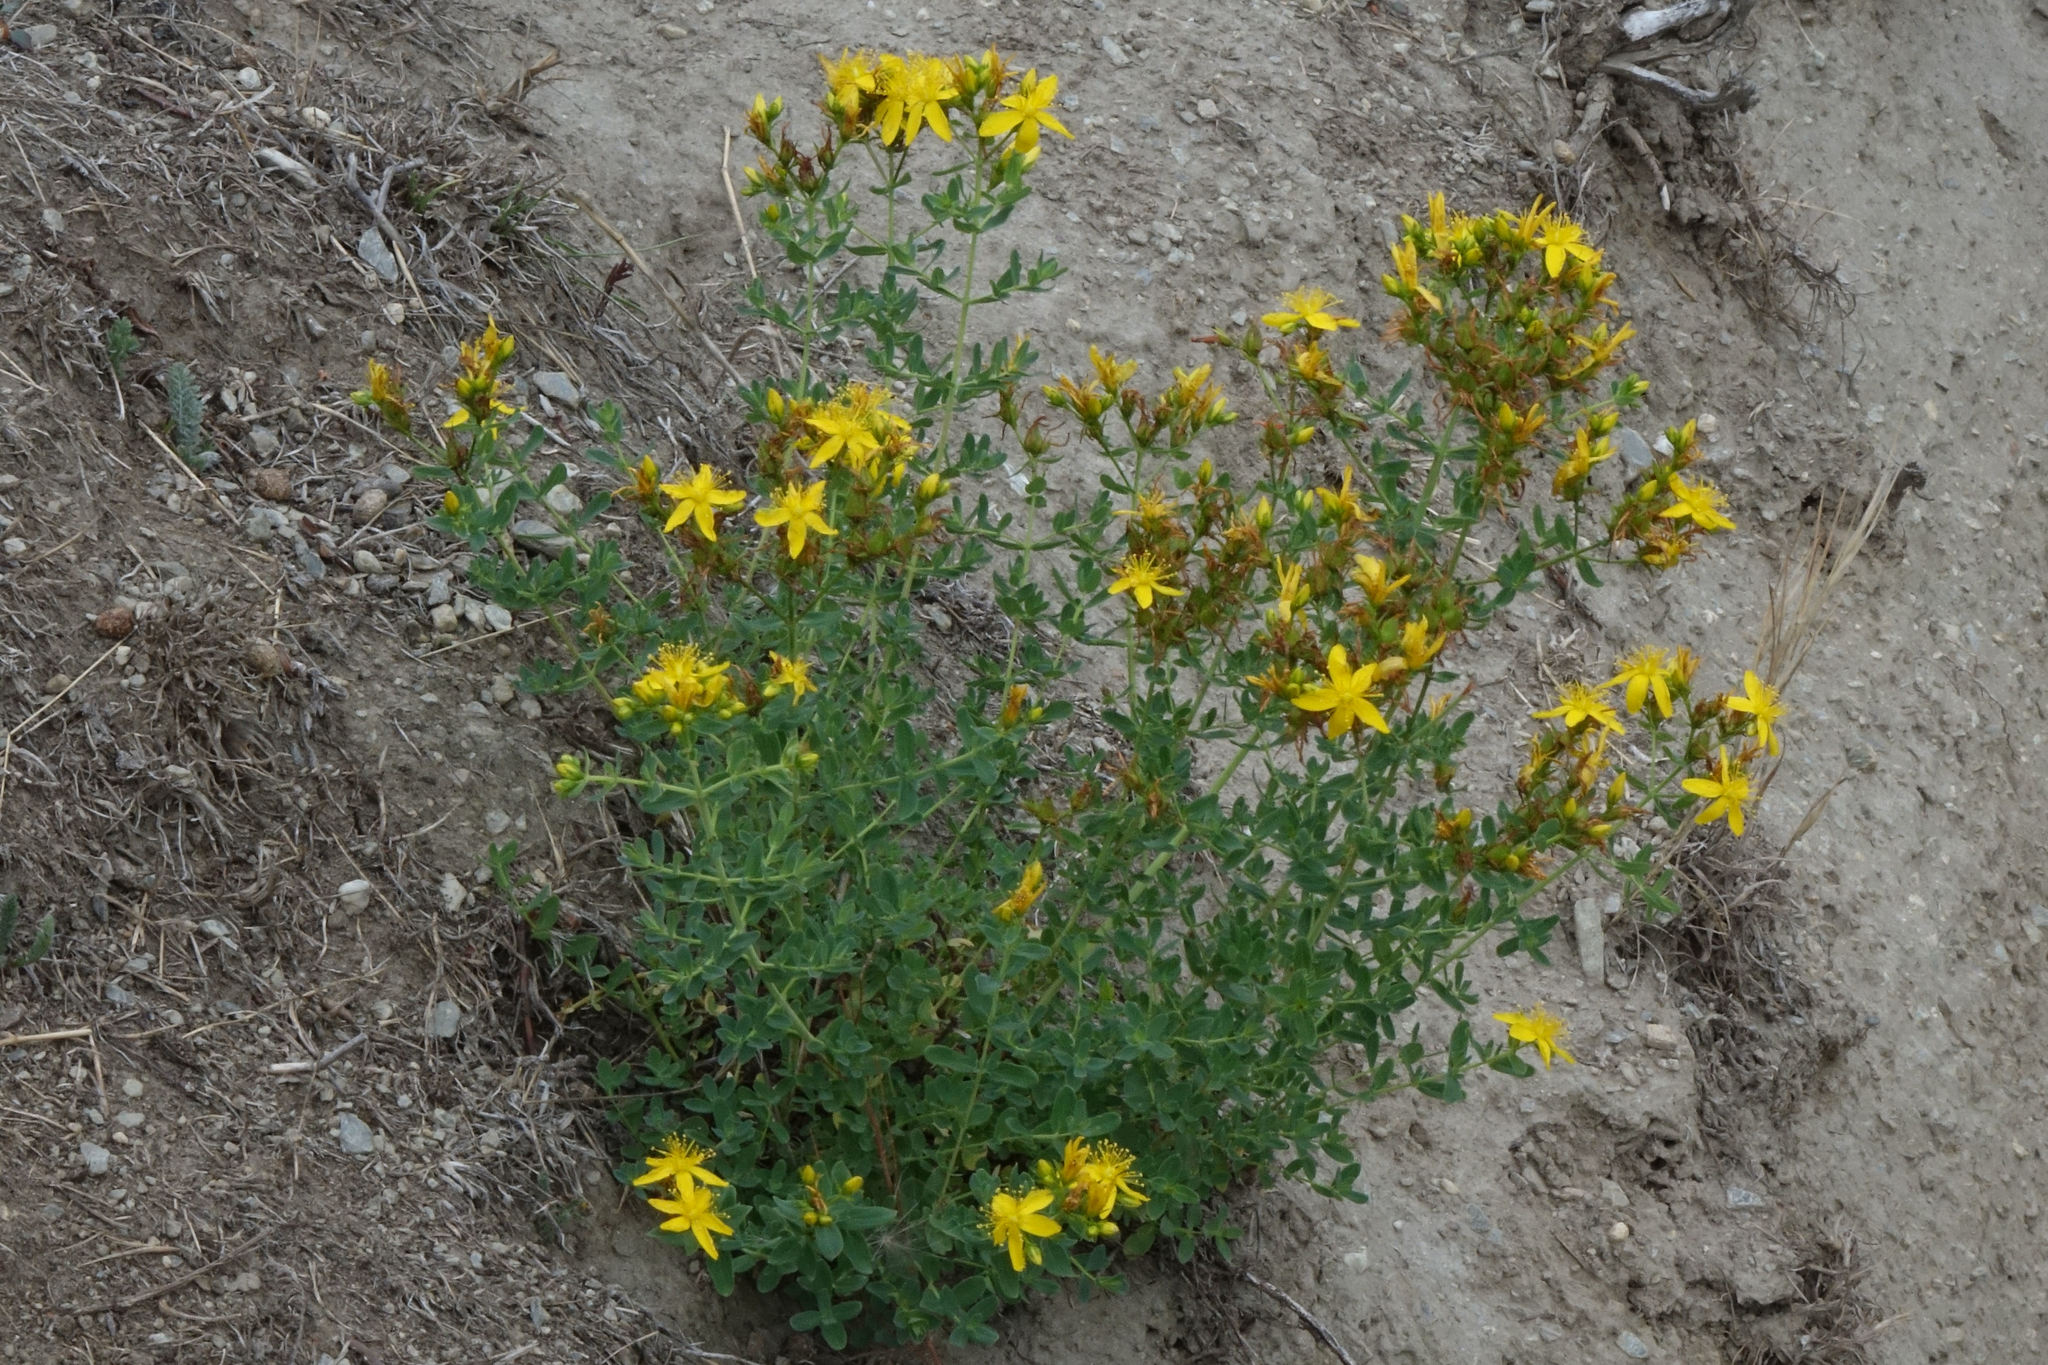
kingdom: Plantae
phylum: Tracheophyta
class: Magnoliopsida
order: Malpighiales
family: Hypericaceae
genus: Hypericum
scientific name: Hypericum perforatum
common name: Common st. johnswort
